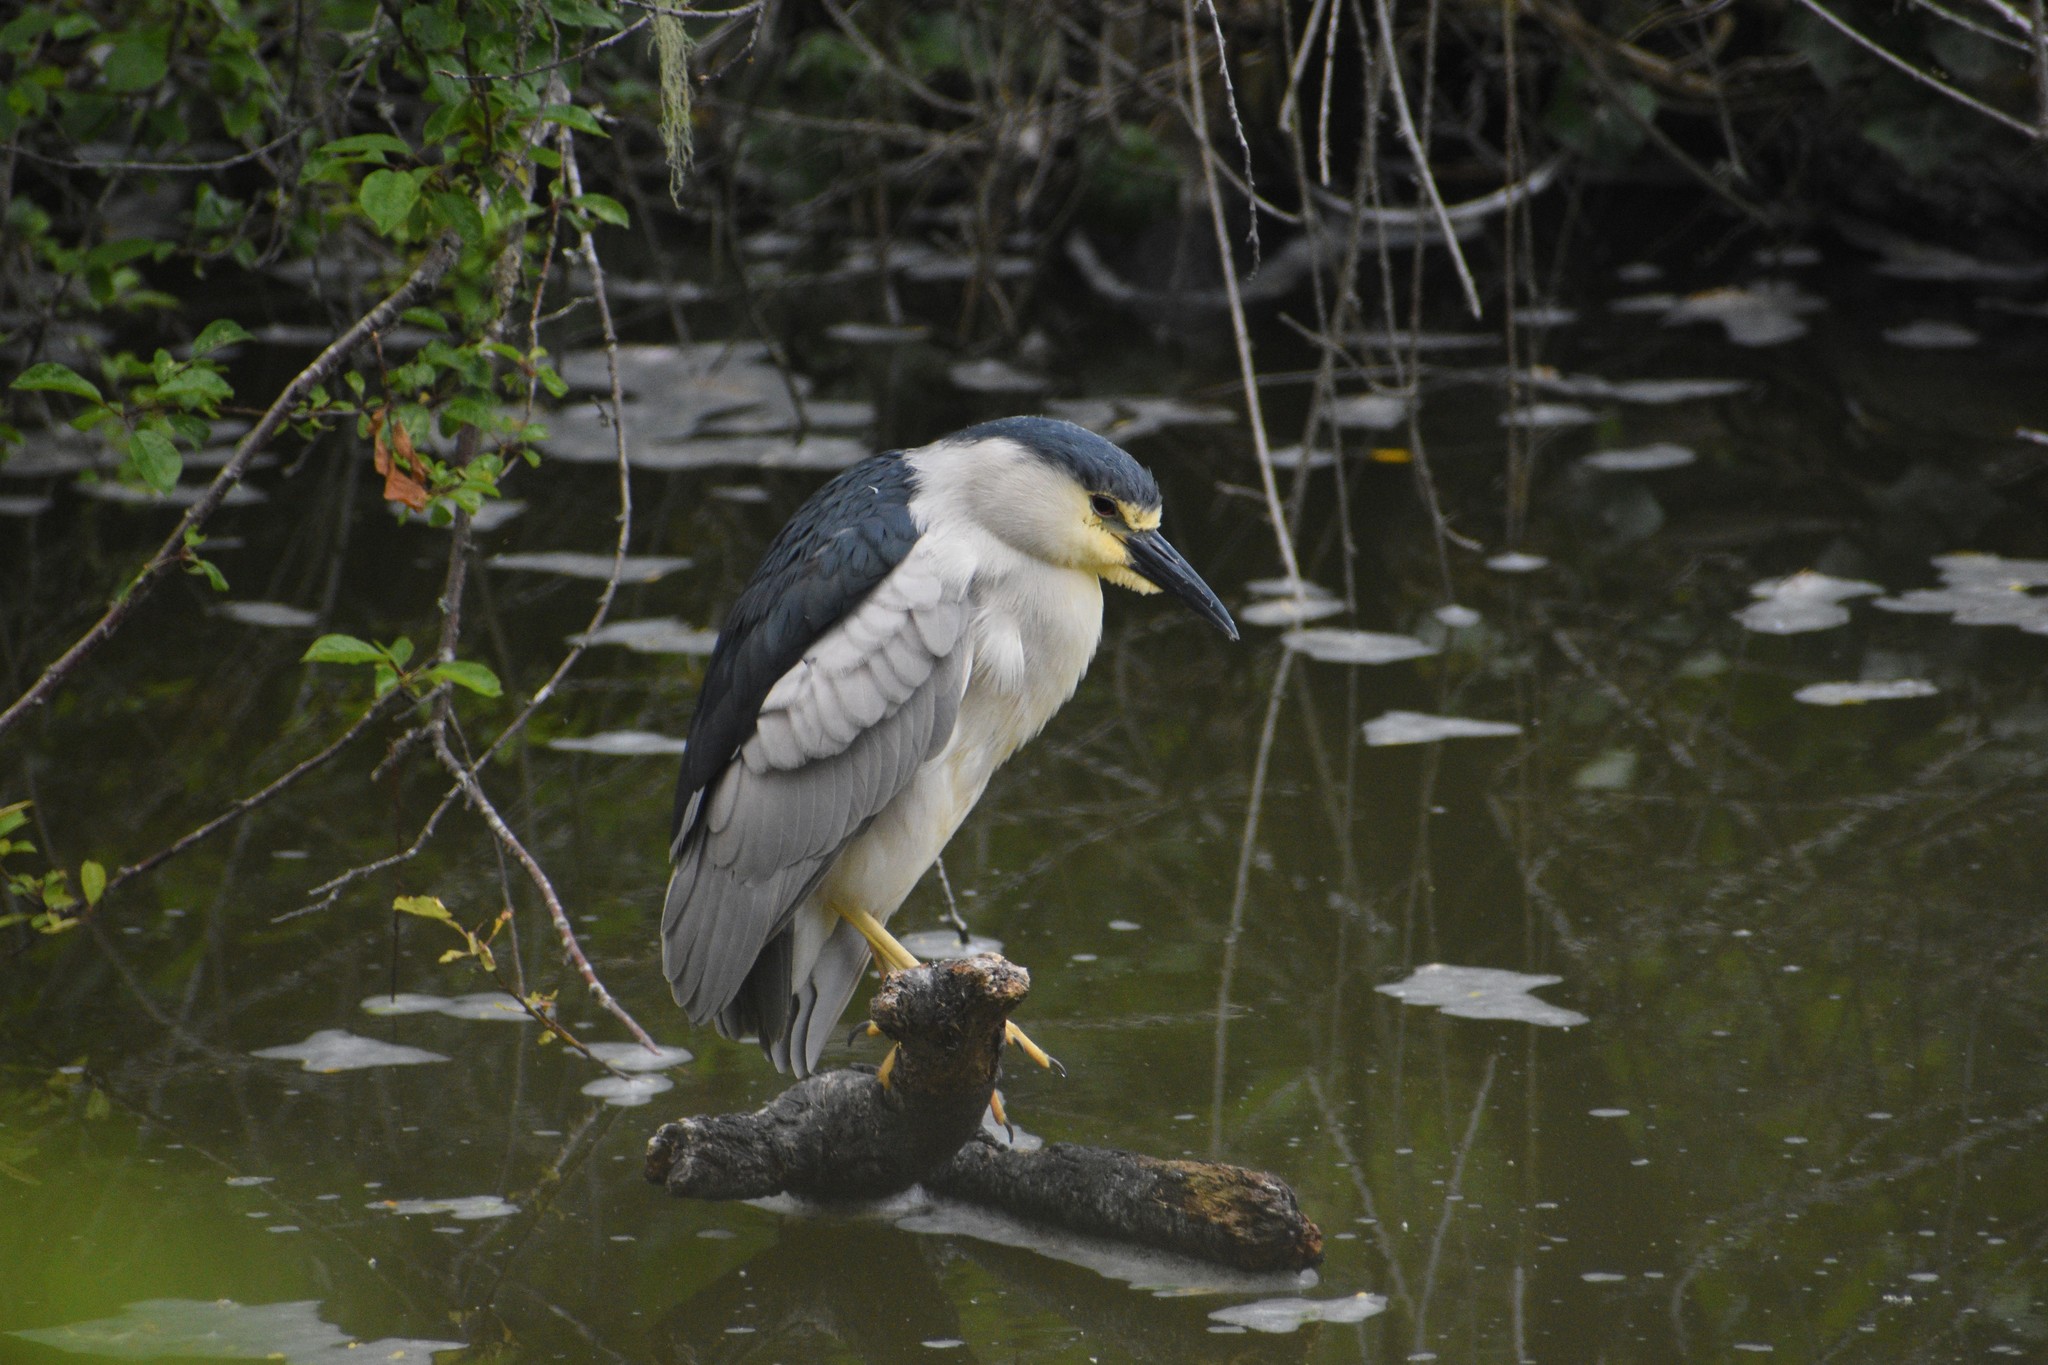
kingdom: Animalia
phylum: Chordata
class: Aves
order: Pelecaniformes
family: Ardeidae
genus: Nycticorax
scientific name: Nycticorax nycticorax
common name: Black-crowned night heron
